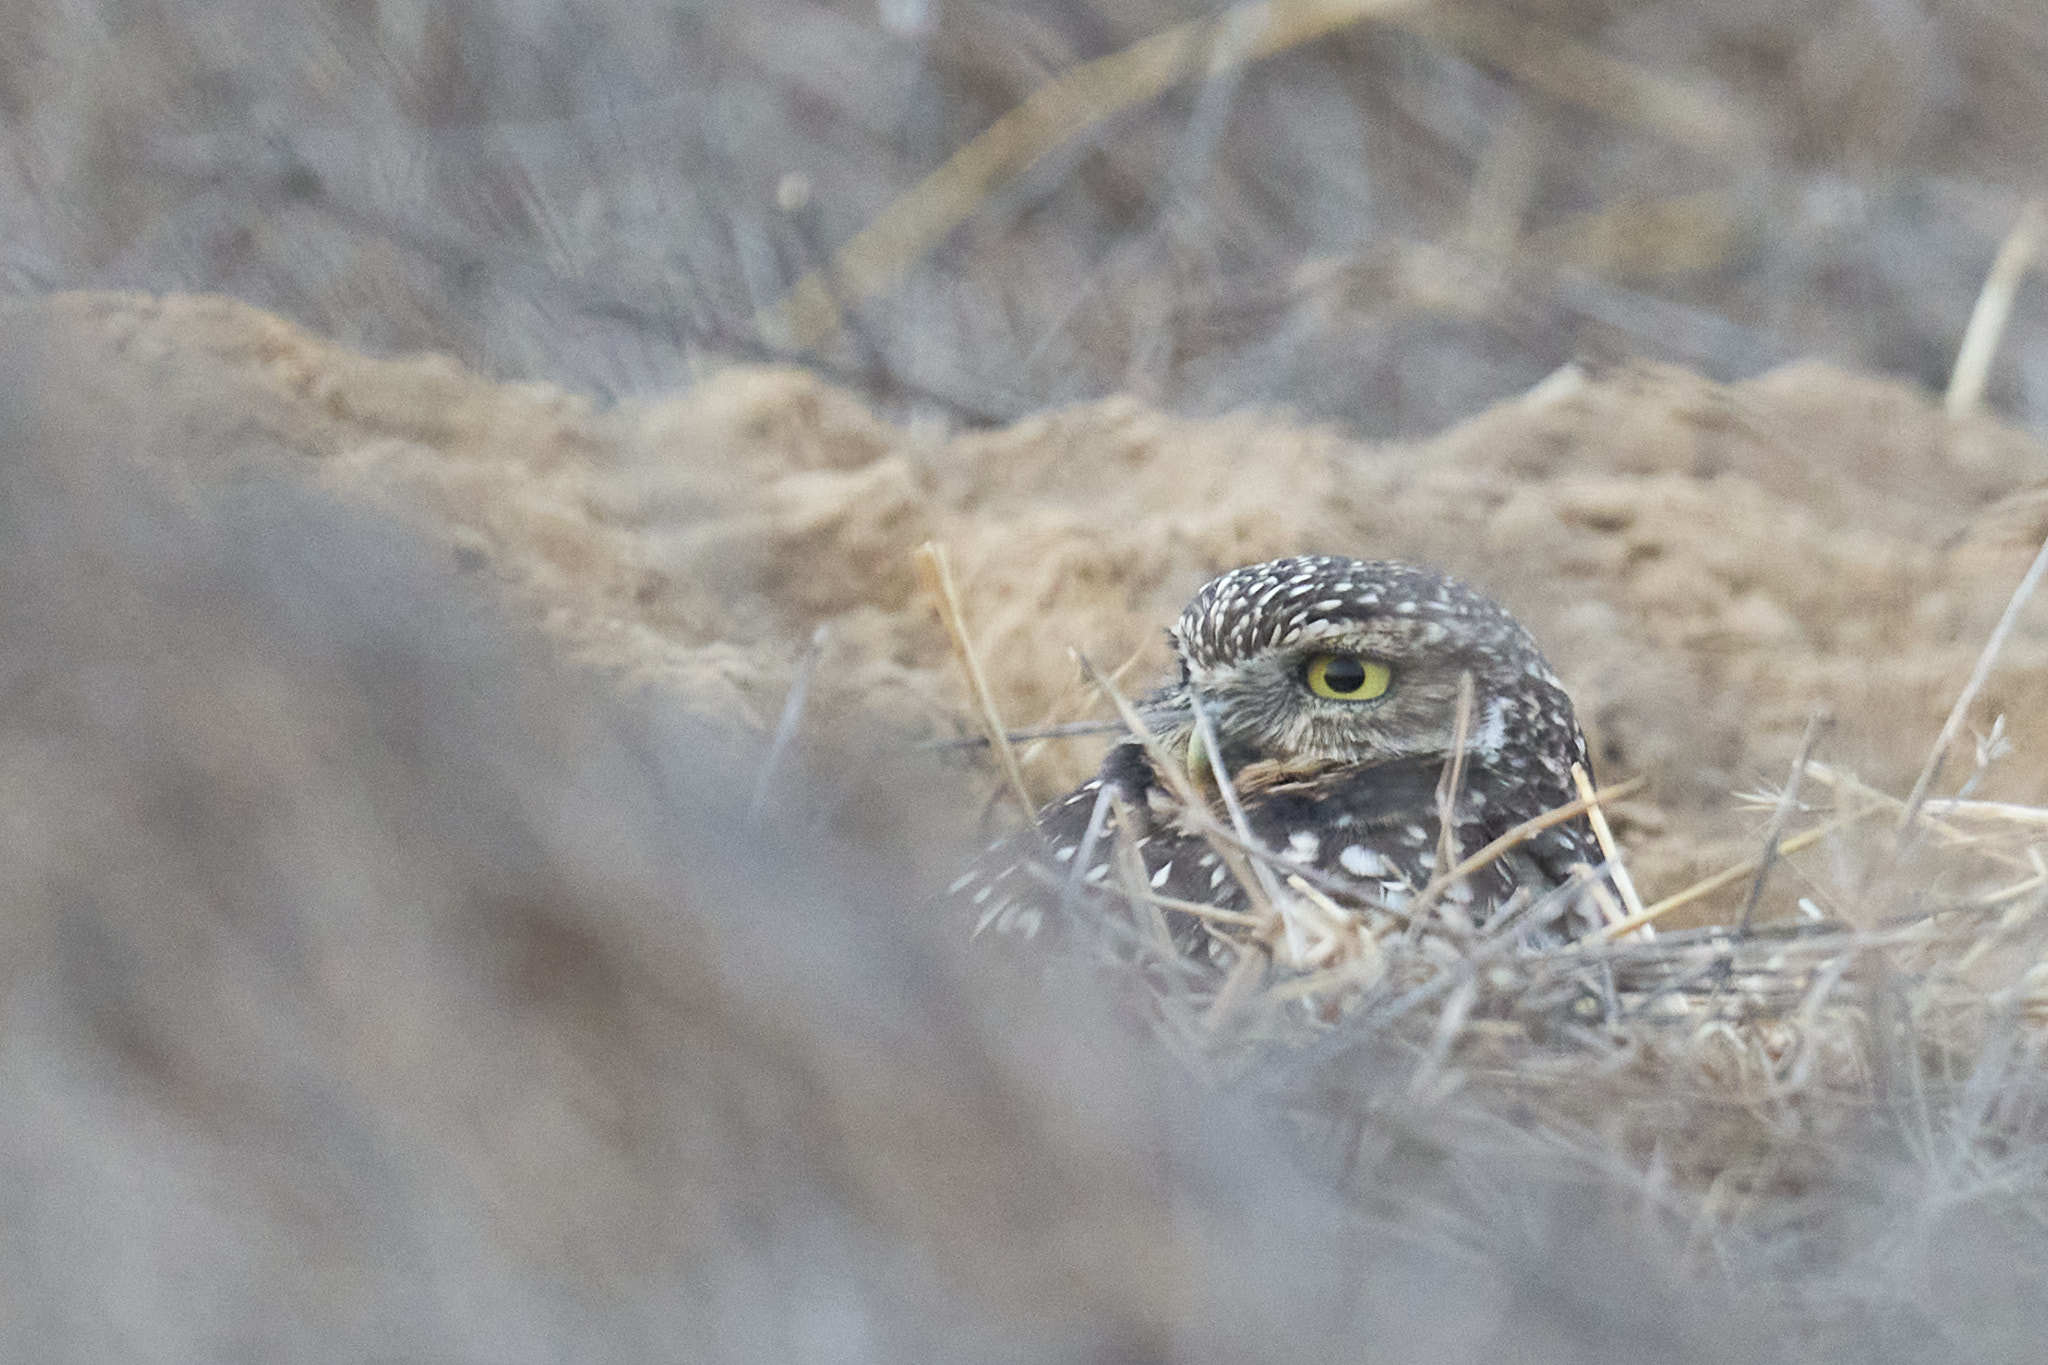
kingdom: Animalia
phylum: Chordata
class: Aves
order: Strigiformes
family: Strigidae
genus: Athene
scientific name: Athene cunicularia
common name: Burrowing owl
